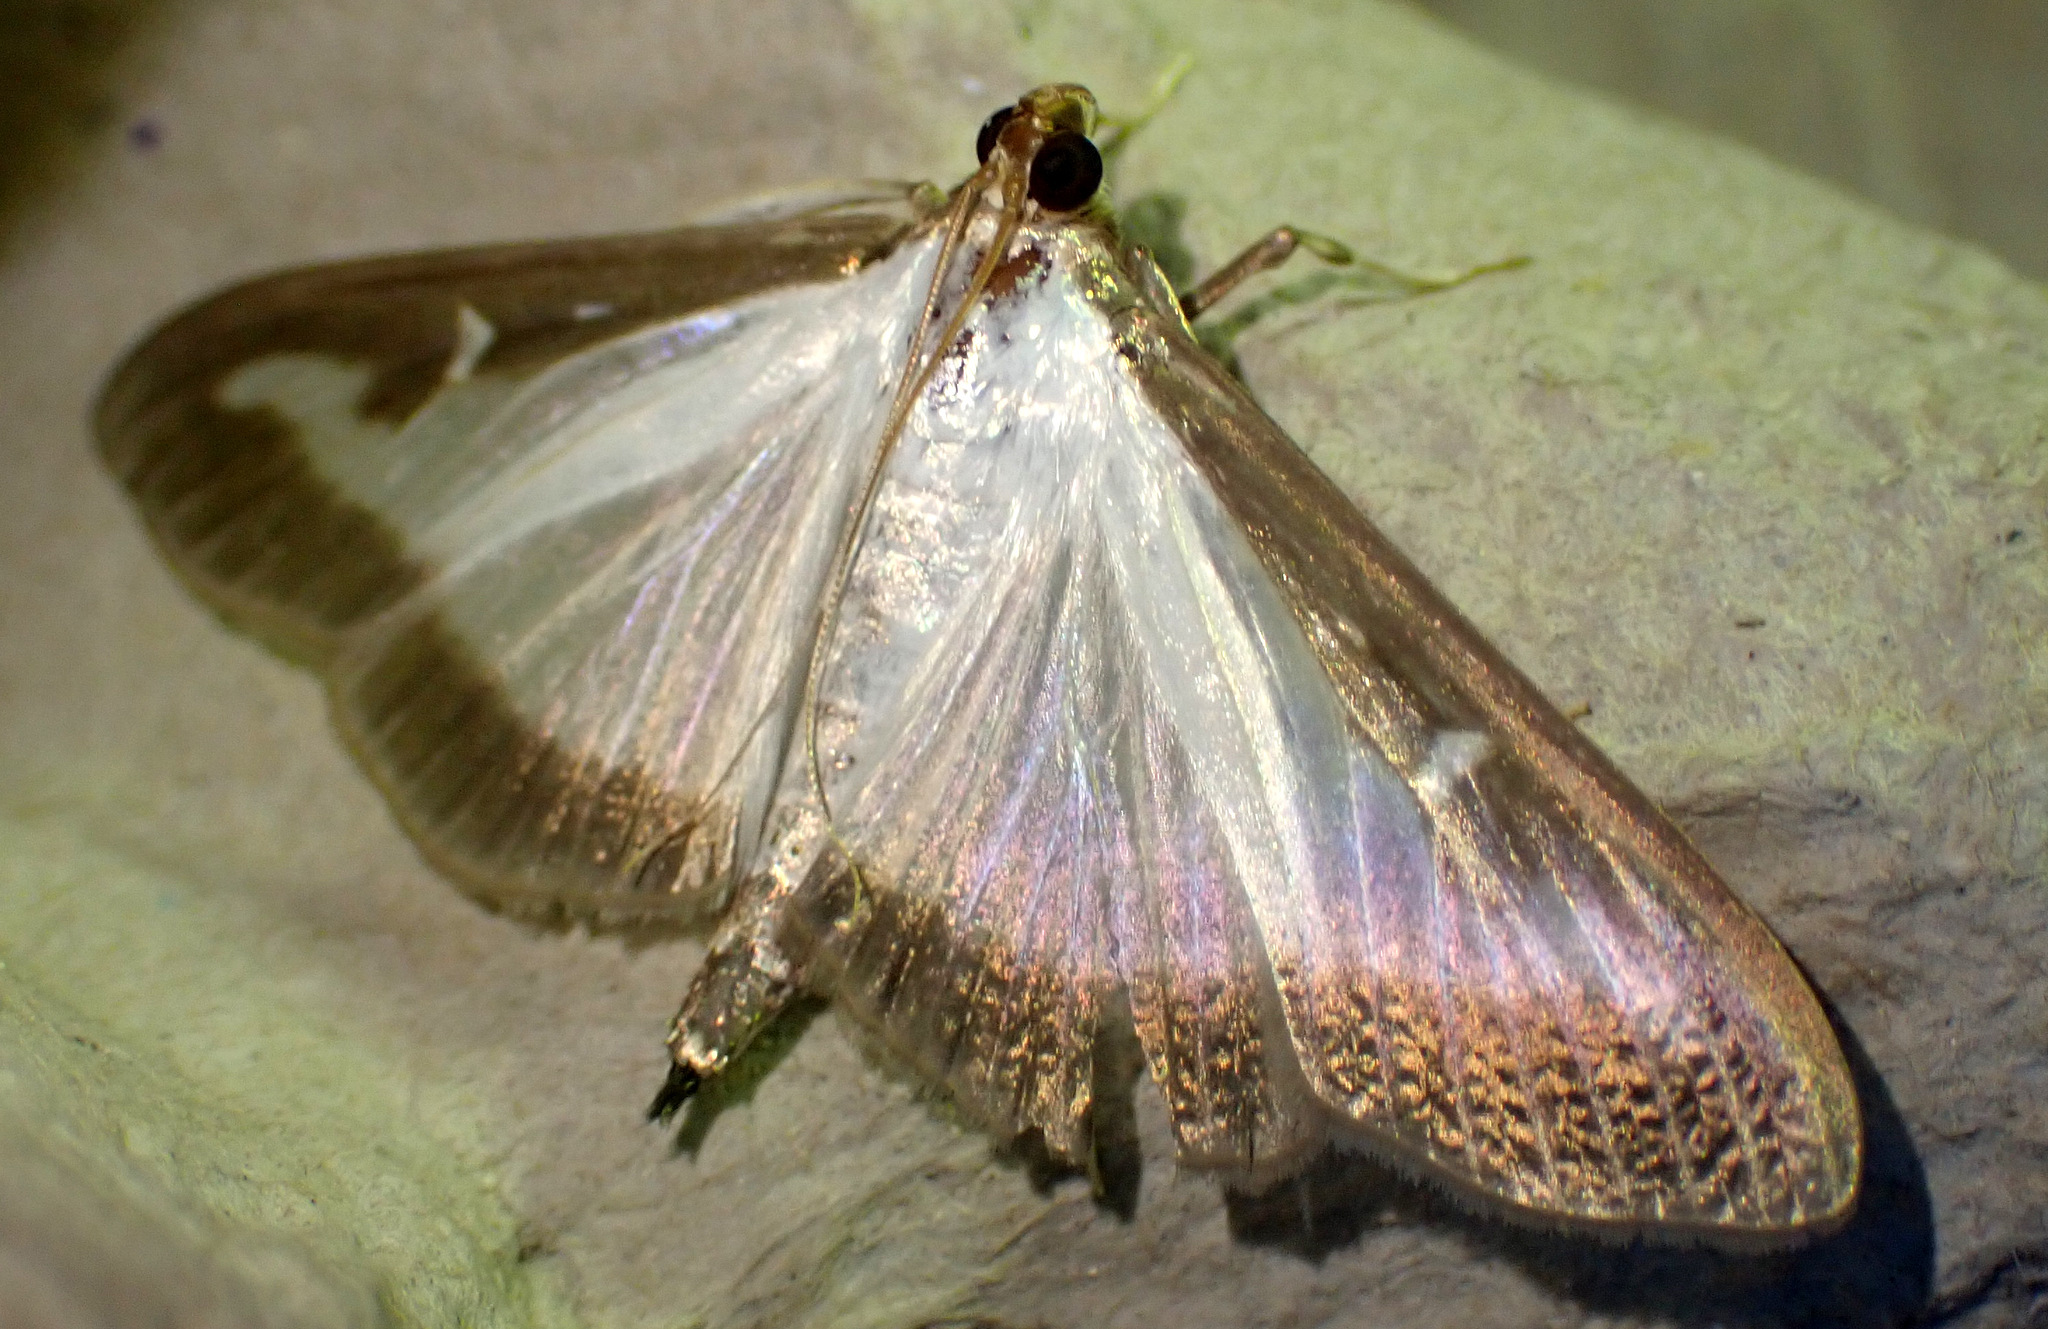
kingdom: Animalia
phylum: Arthropoda
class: Insecta
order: Lepidoptera
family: Crambidae
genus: Cydalima
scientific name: Cydalima perspectalis
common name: Box tree moth
